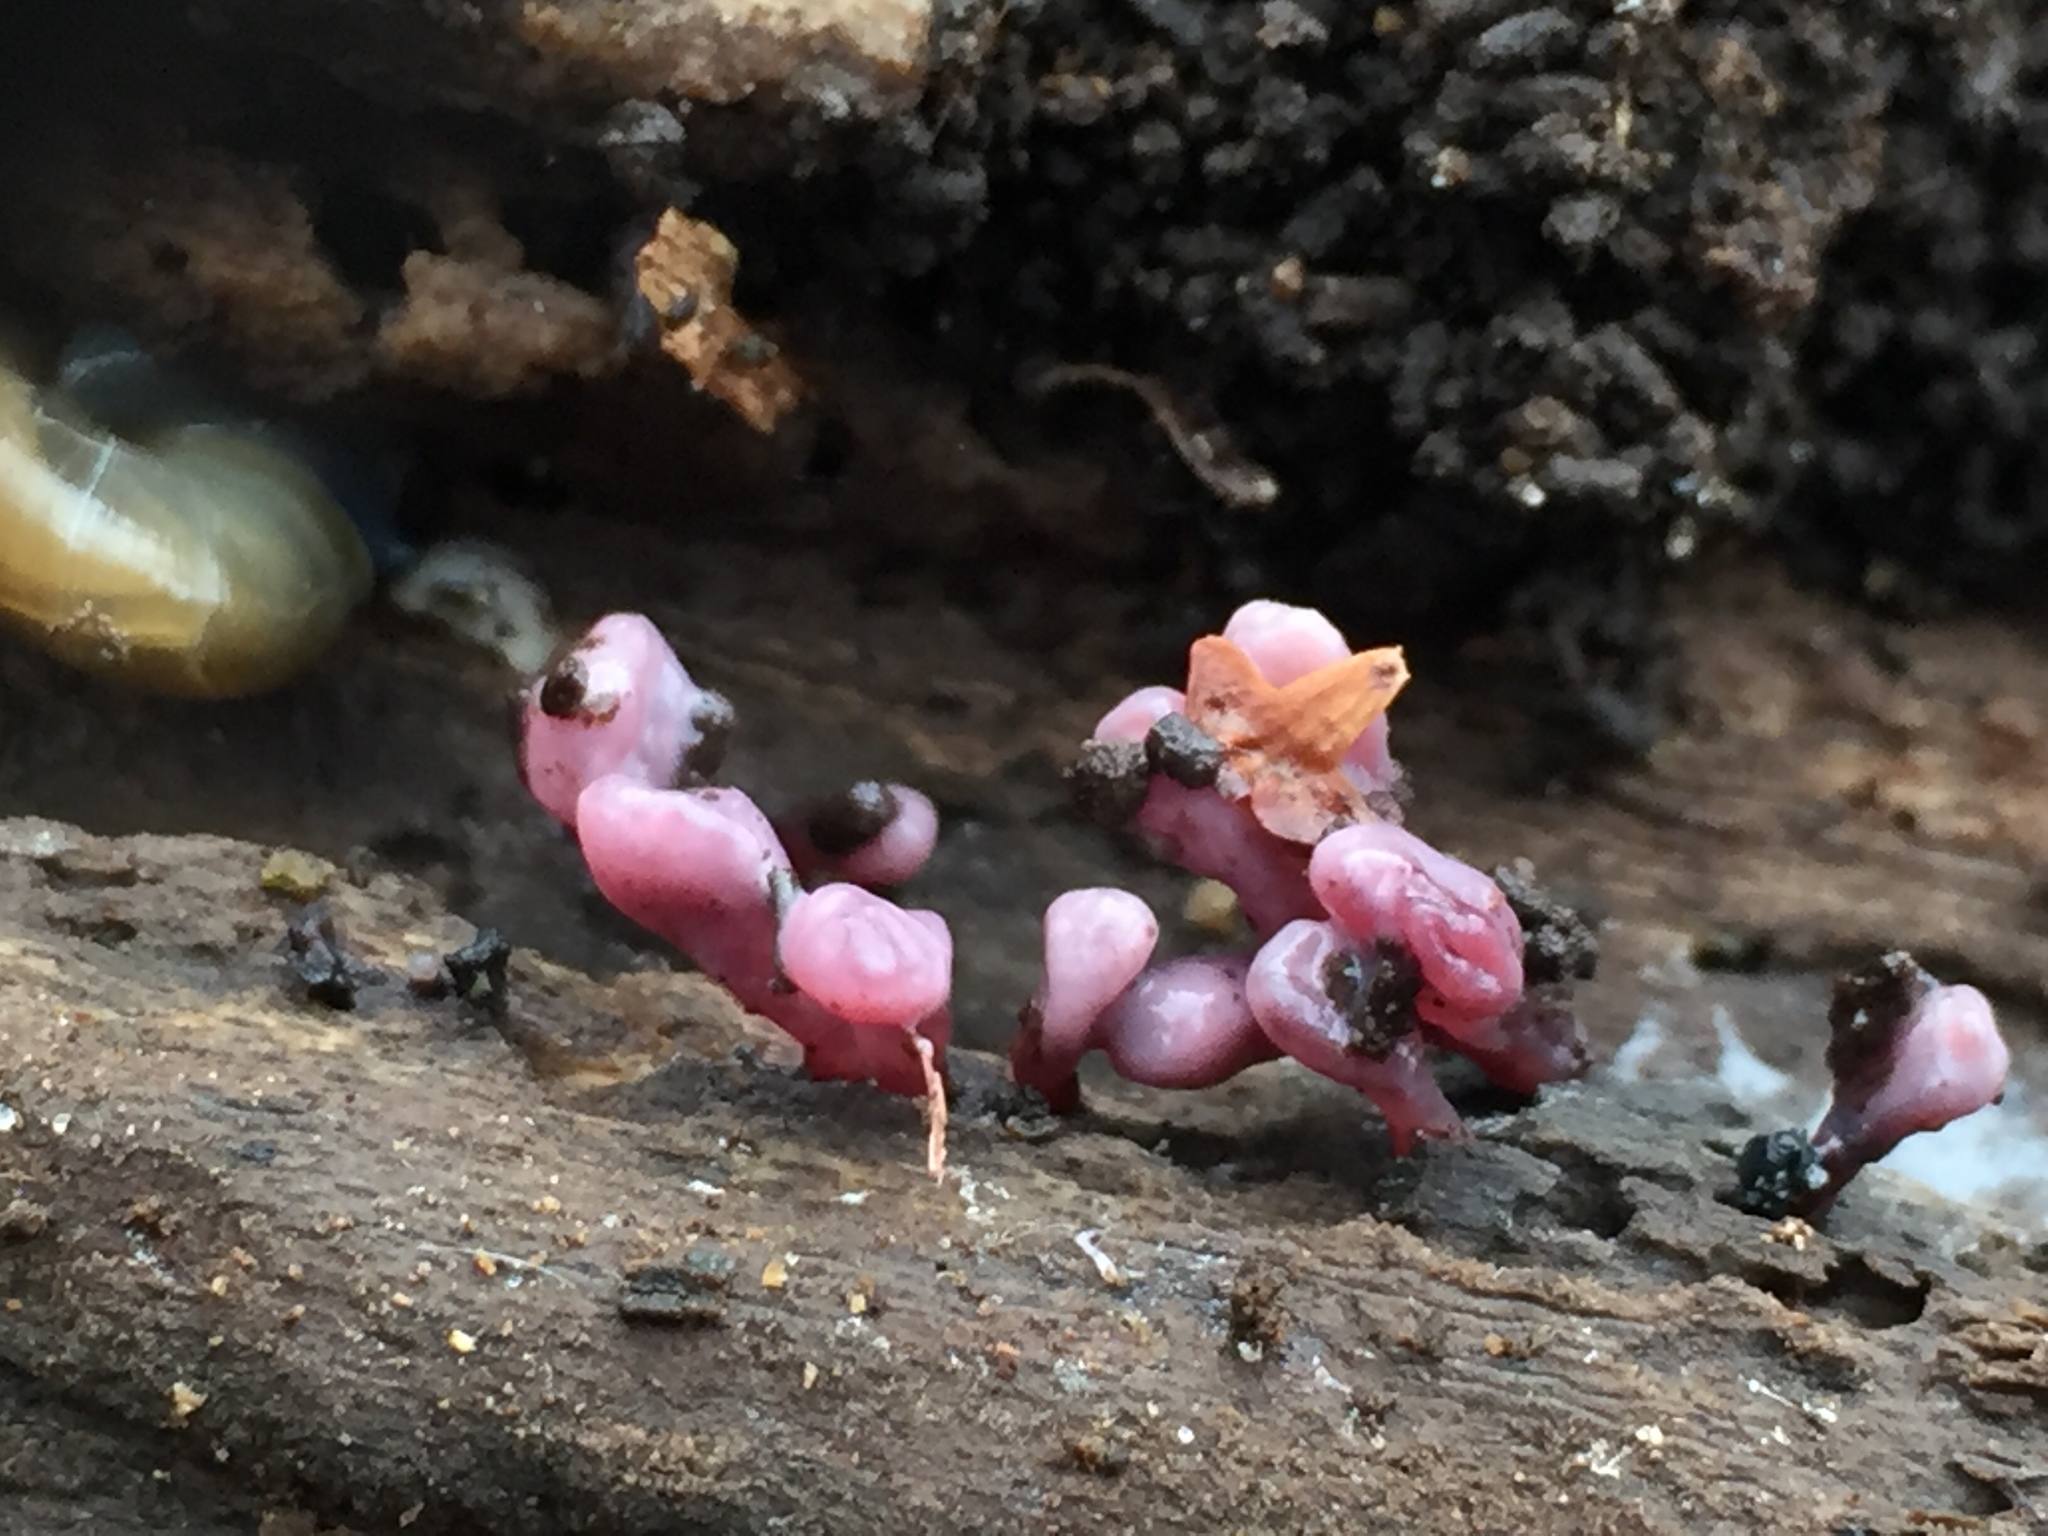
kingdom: Fungi
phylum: Ascomycota
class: Leotiomycetes
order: Helotiales
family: Gelatinodiscaceae
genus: Ascocoryne
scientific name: Ascocoryne sarcoides
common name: Purple jellydisc
